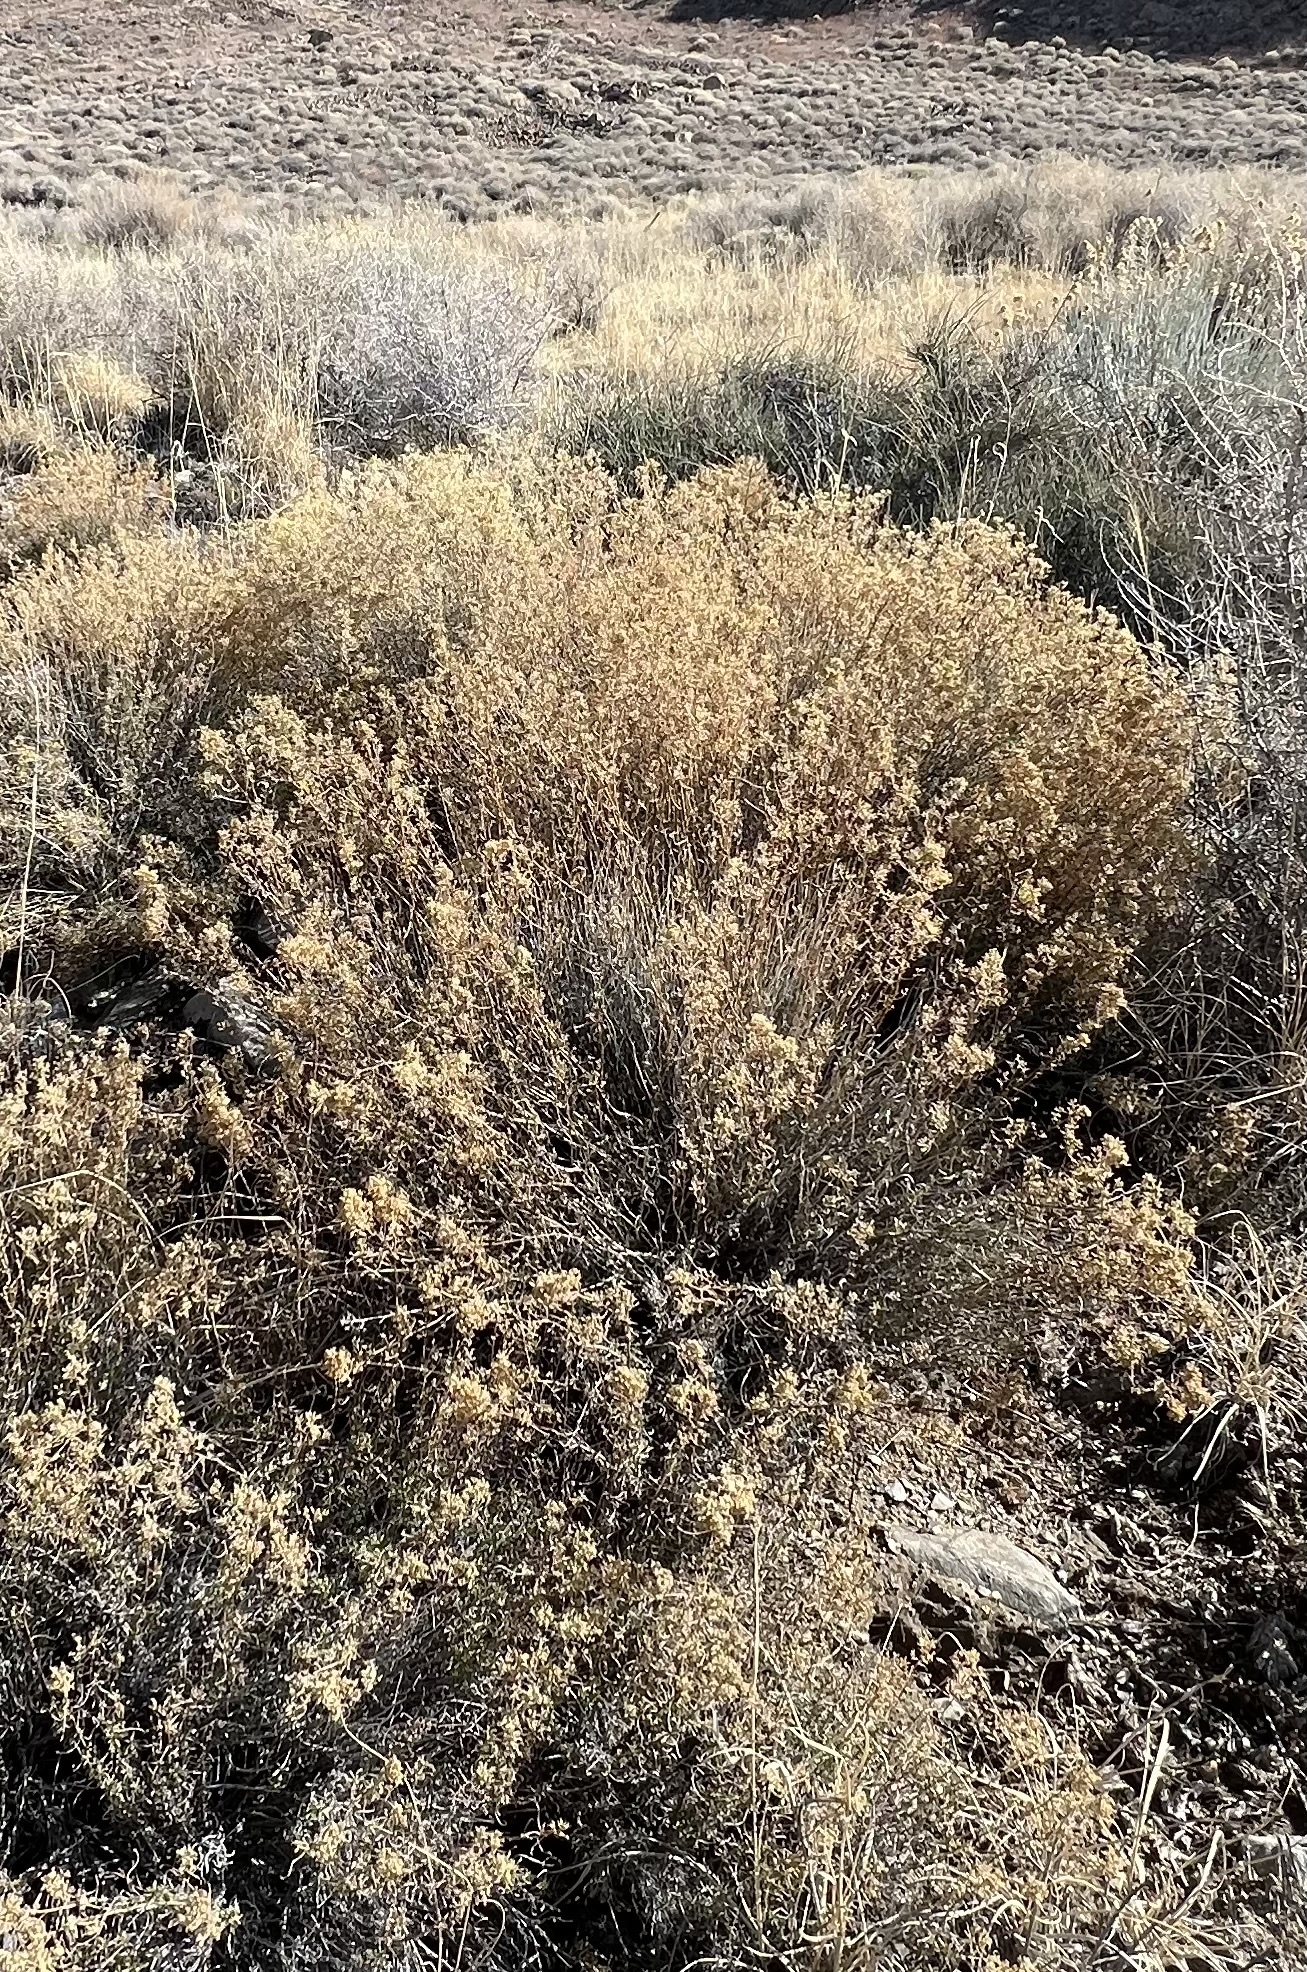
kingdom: Plantae
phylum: Tracheophyta
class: Magnoliopsida
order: Asterales
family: Asteraceae
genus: Gutierrezia
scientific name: Gutierrezia microcephala
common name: Thread snakeweed
